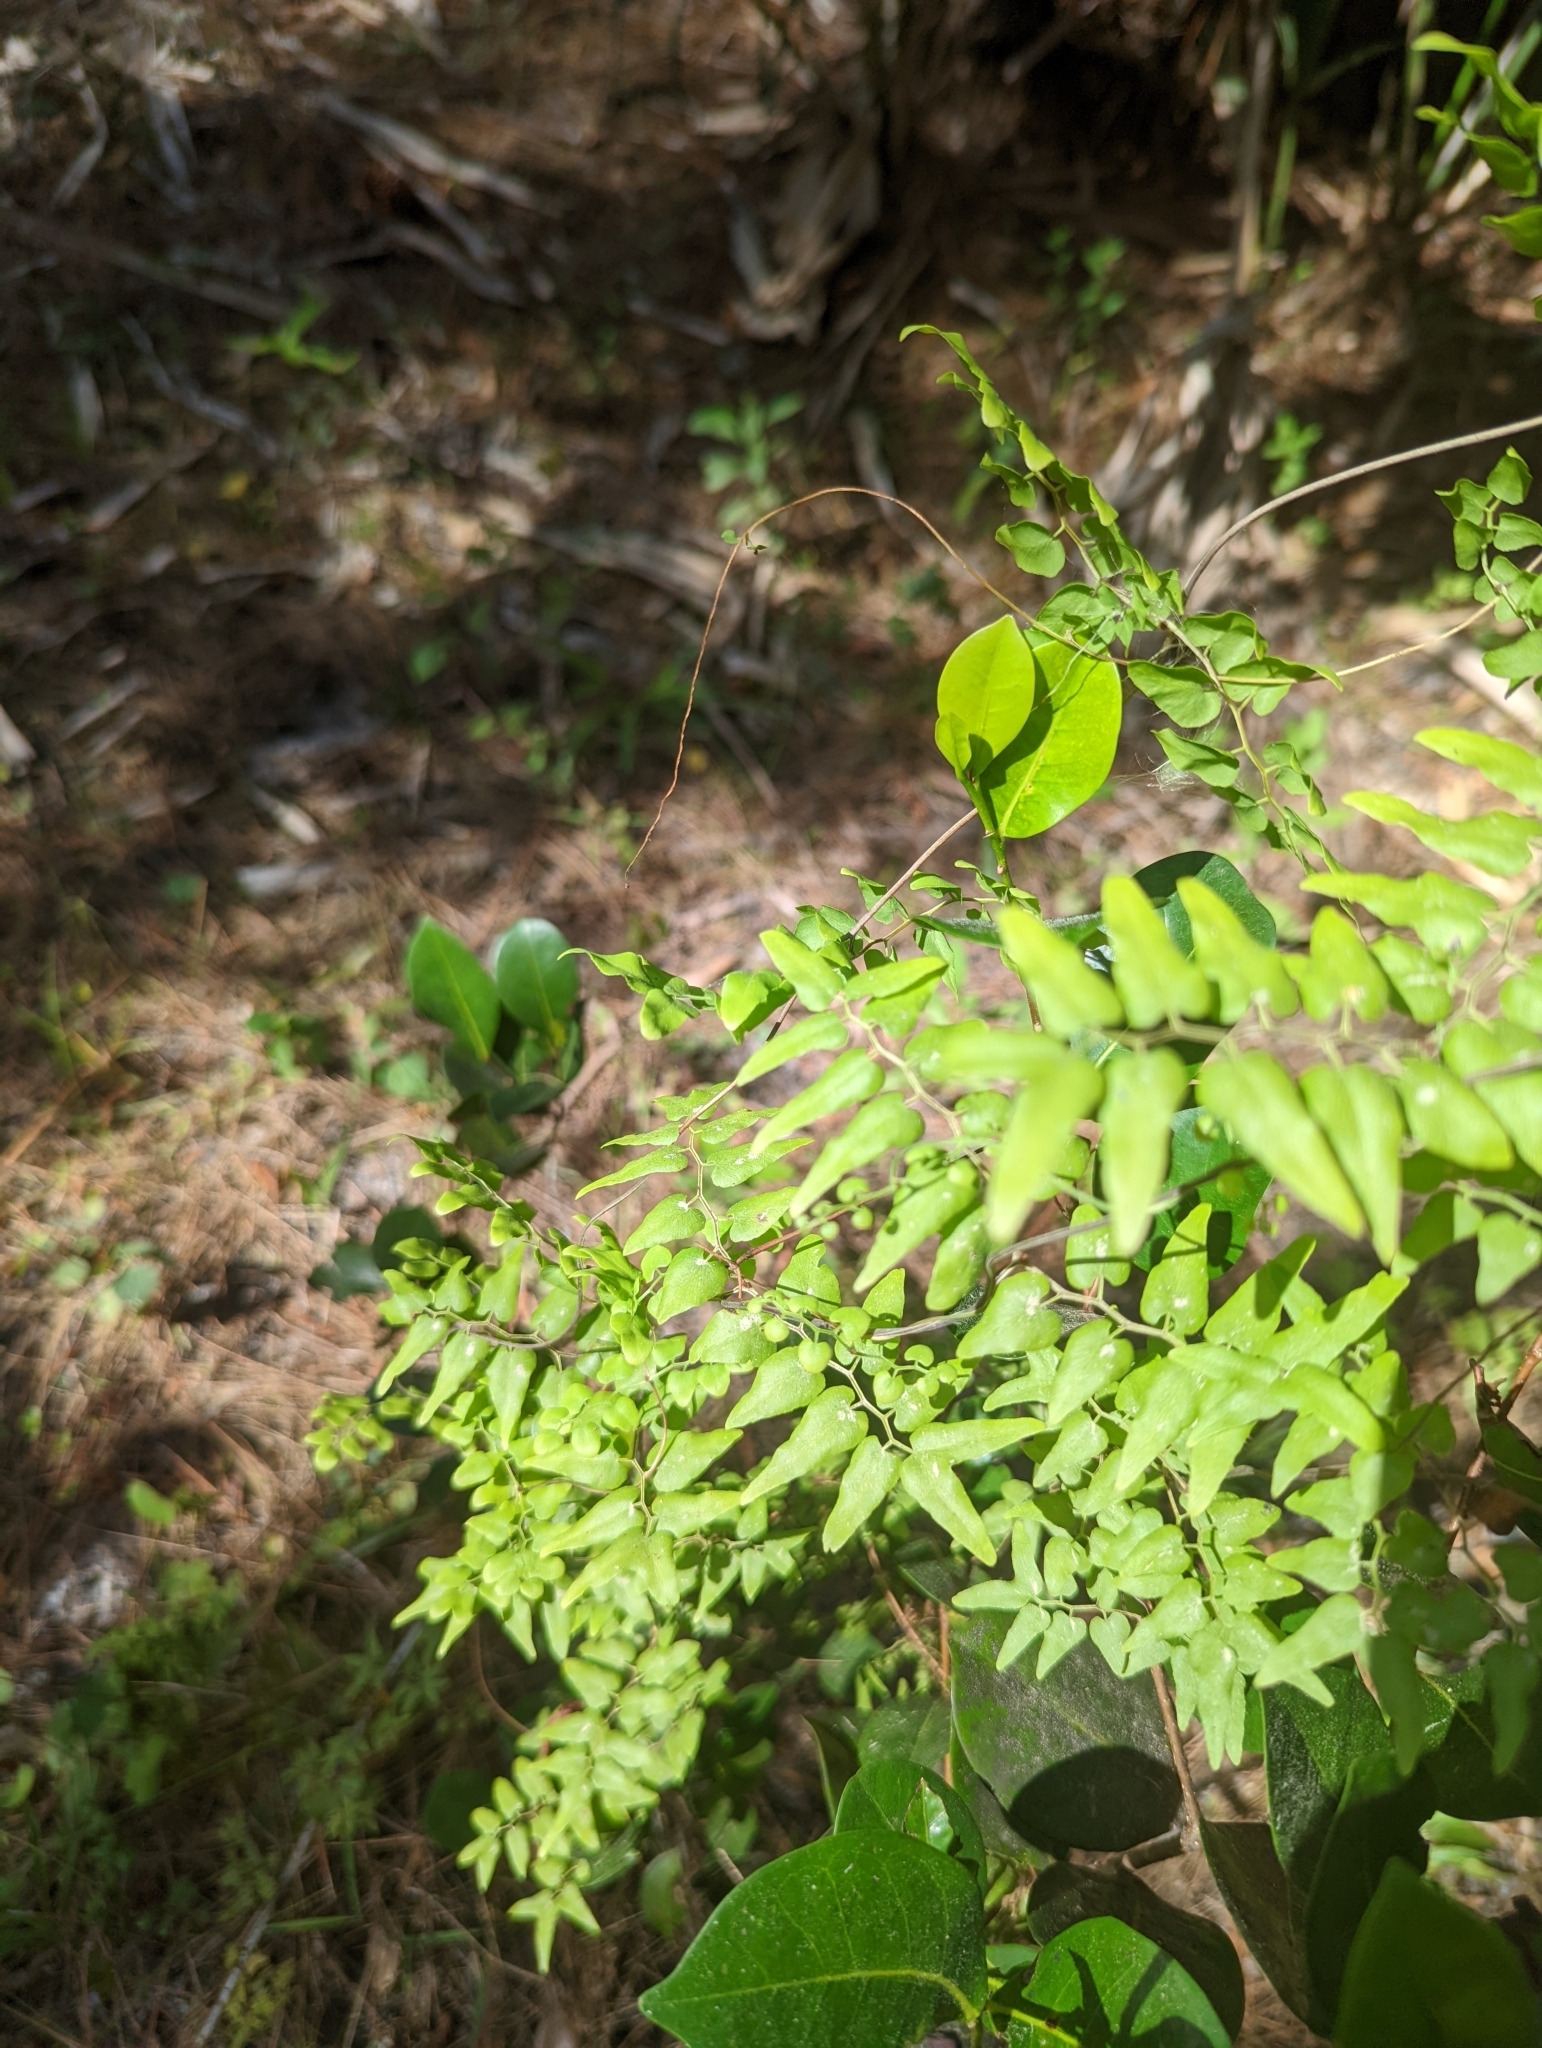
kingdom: Plantae
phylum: Tracheophyta
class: Polypodiopsida
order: Schizaeales
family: Lygodiaceae
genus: Lygodium
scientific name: Lygodium microphyllum
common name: Small-leaf climbing fern
